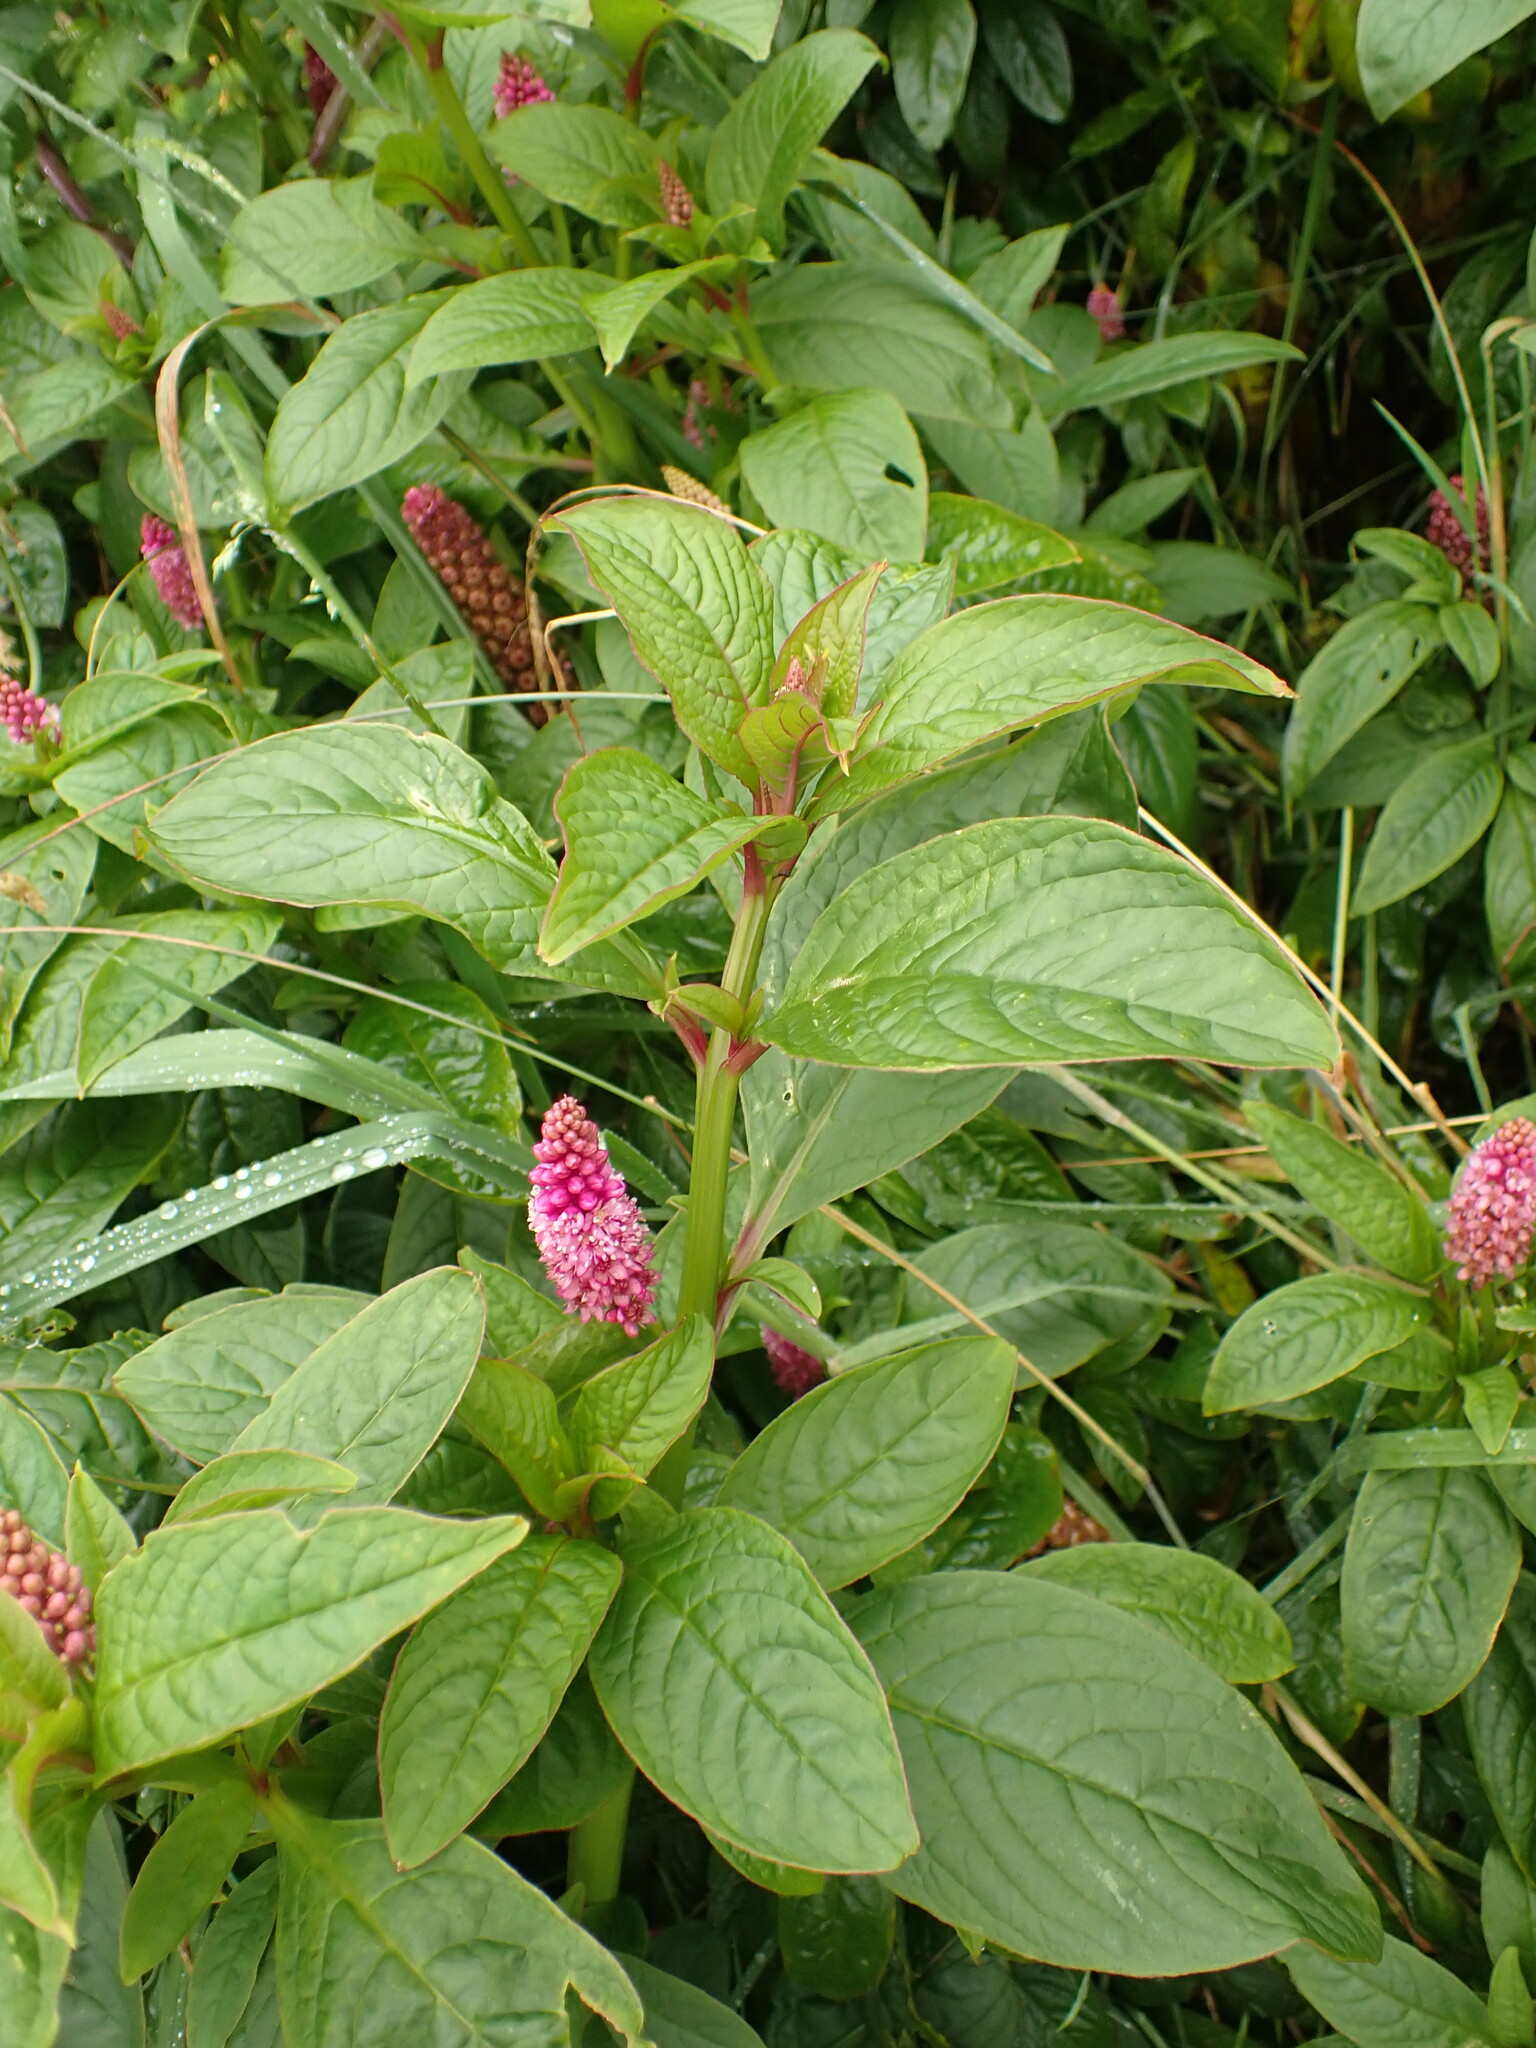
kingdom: Plantae
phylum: Tracheophyta
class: Magnoliopsida
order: Caryophyllales
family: Phytolaccaceae
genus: Phytolacca
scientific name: Phytolacca bogotensis
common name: Southern pokeweed
